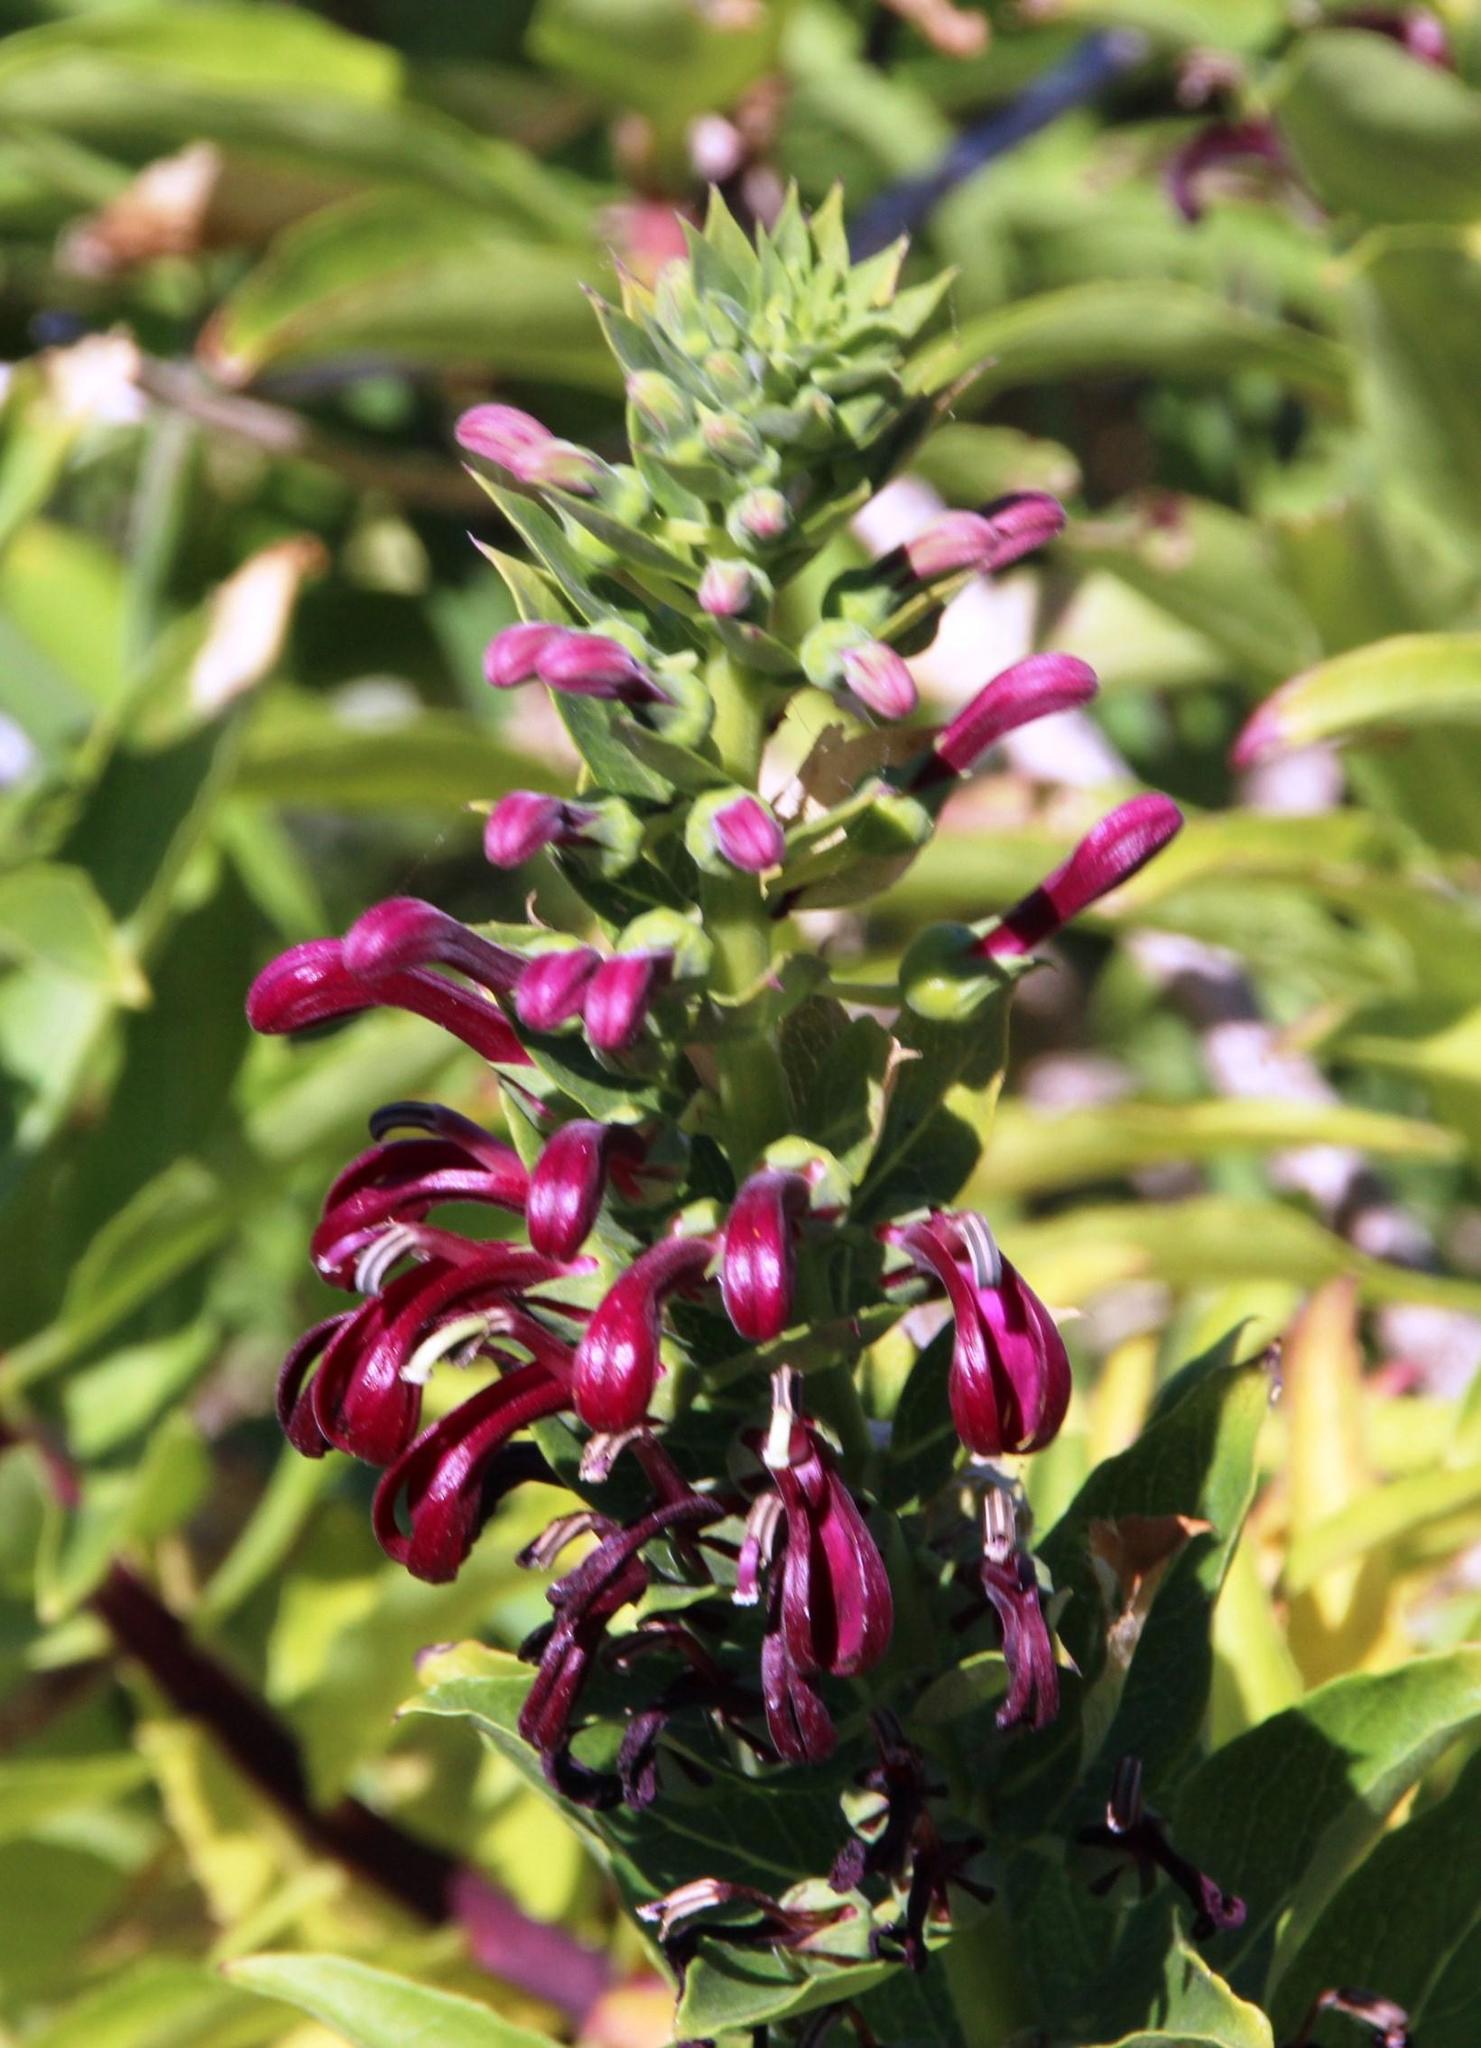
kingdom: Plantae
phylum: Tracheophyta
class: Magnoliopsida
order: Asterales
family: Campanulaceae
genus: Lobelia
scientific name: Lobelia polyphylla
